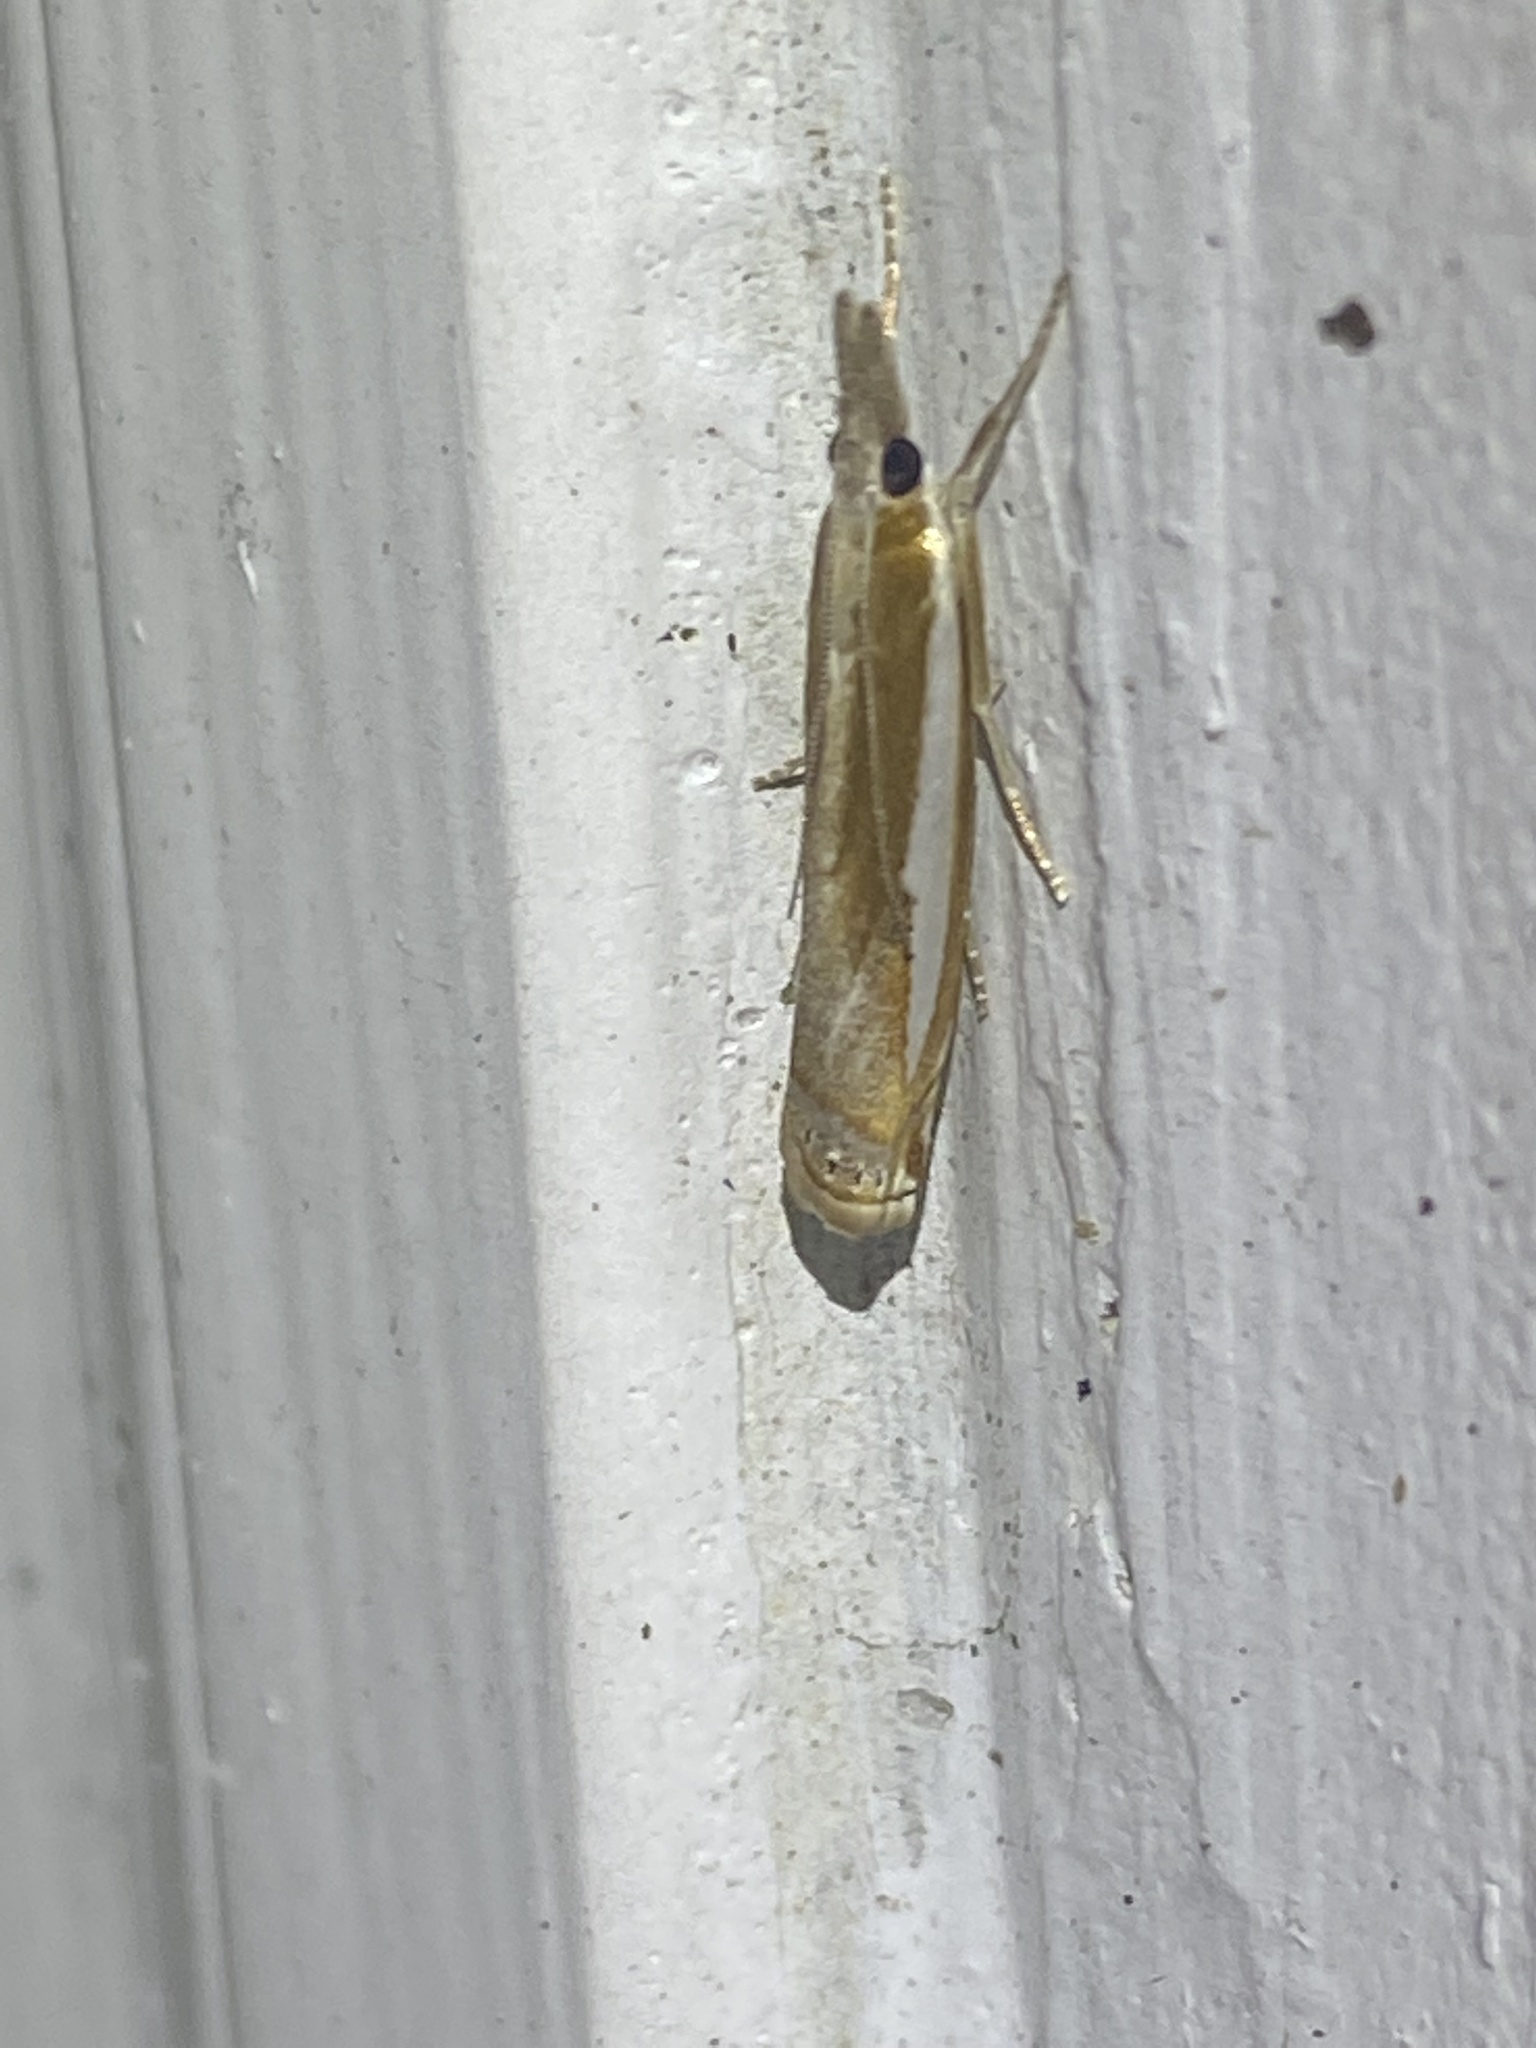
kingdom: Animalia
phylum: Arthropoda
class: Insecta
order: Lepidoptera
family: Crambidae
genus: Crambus
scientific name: Crambus praefectellus
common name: Common grass-veneer
